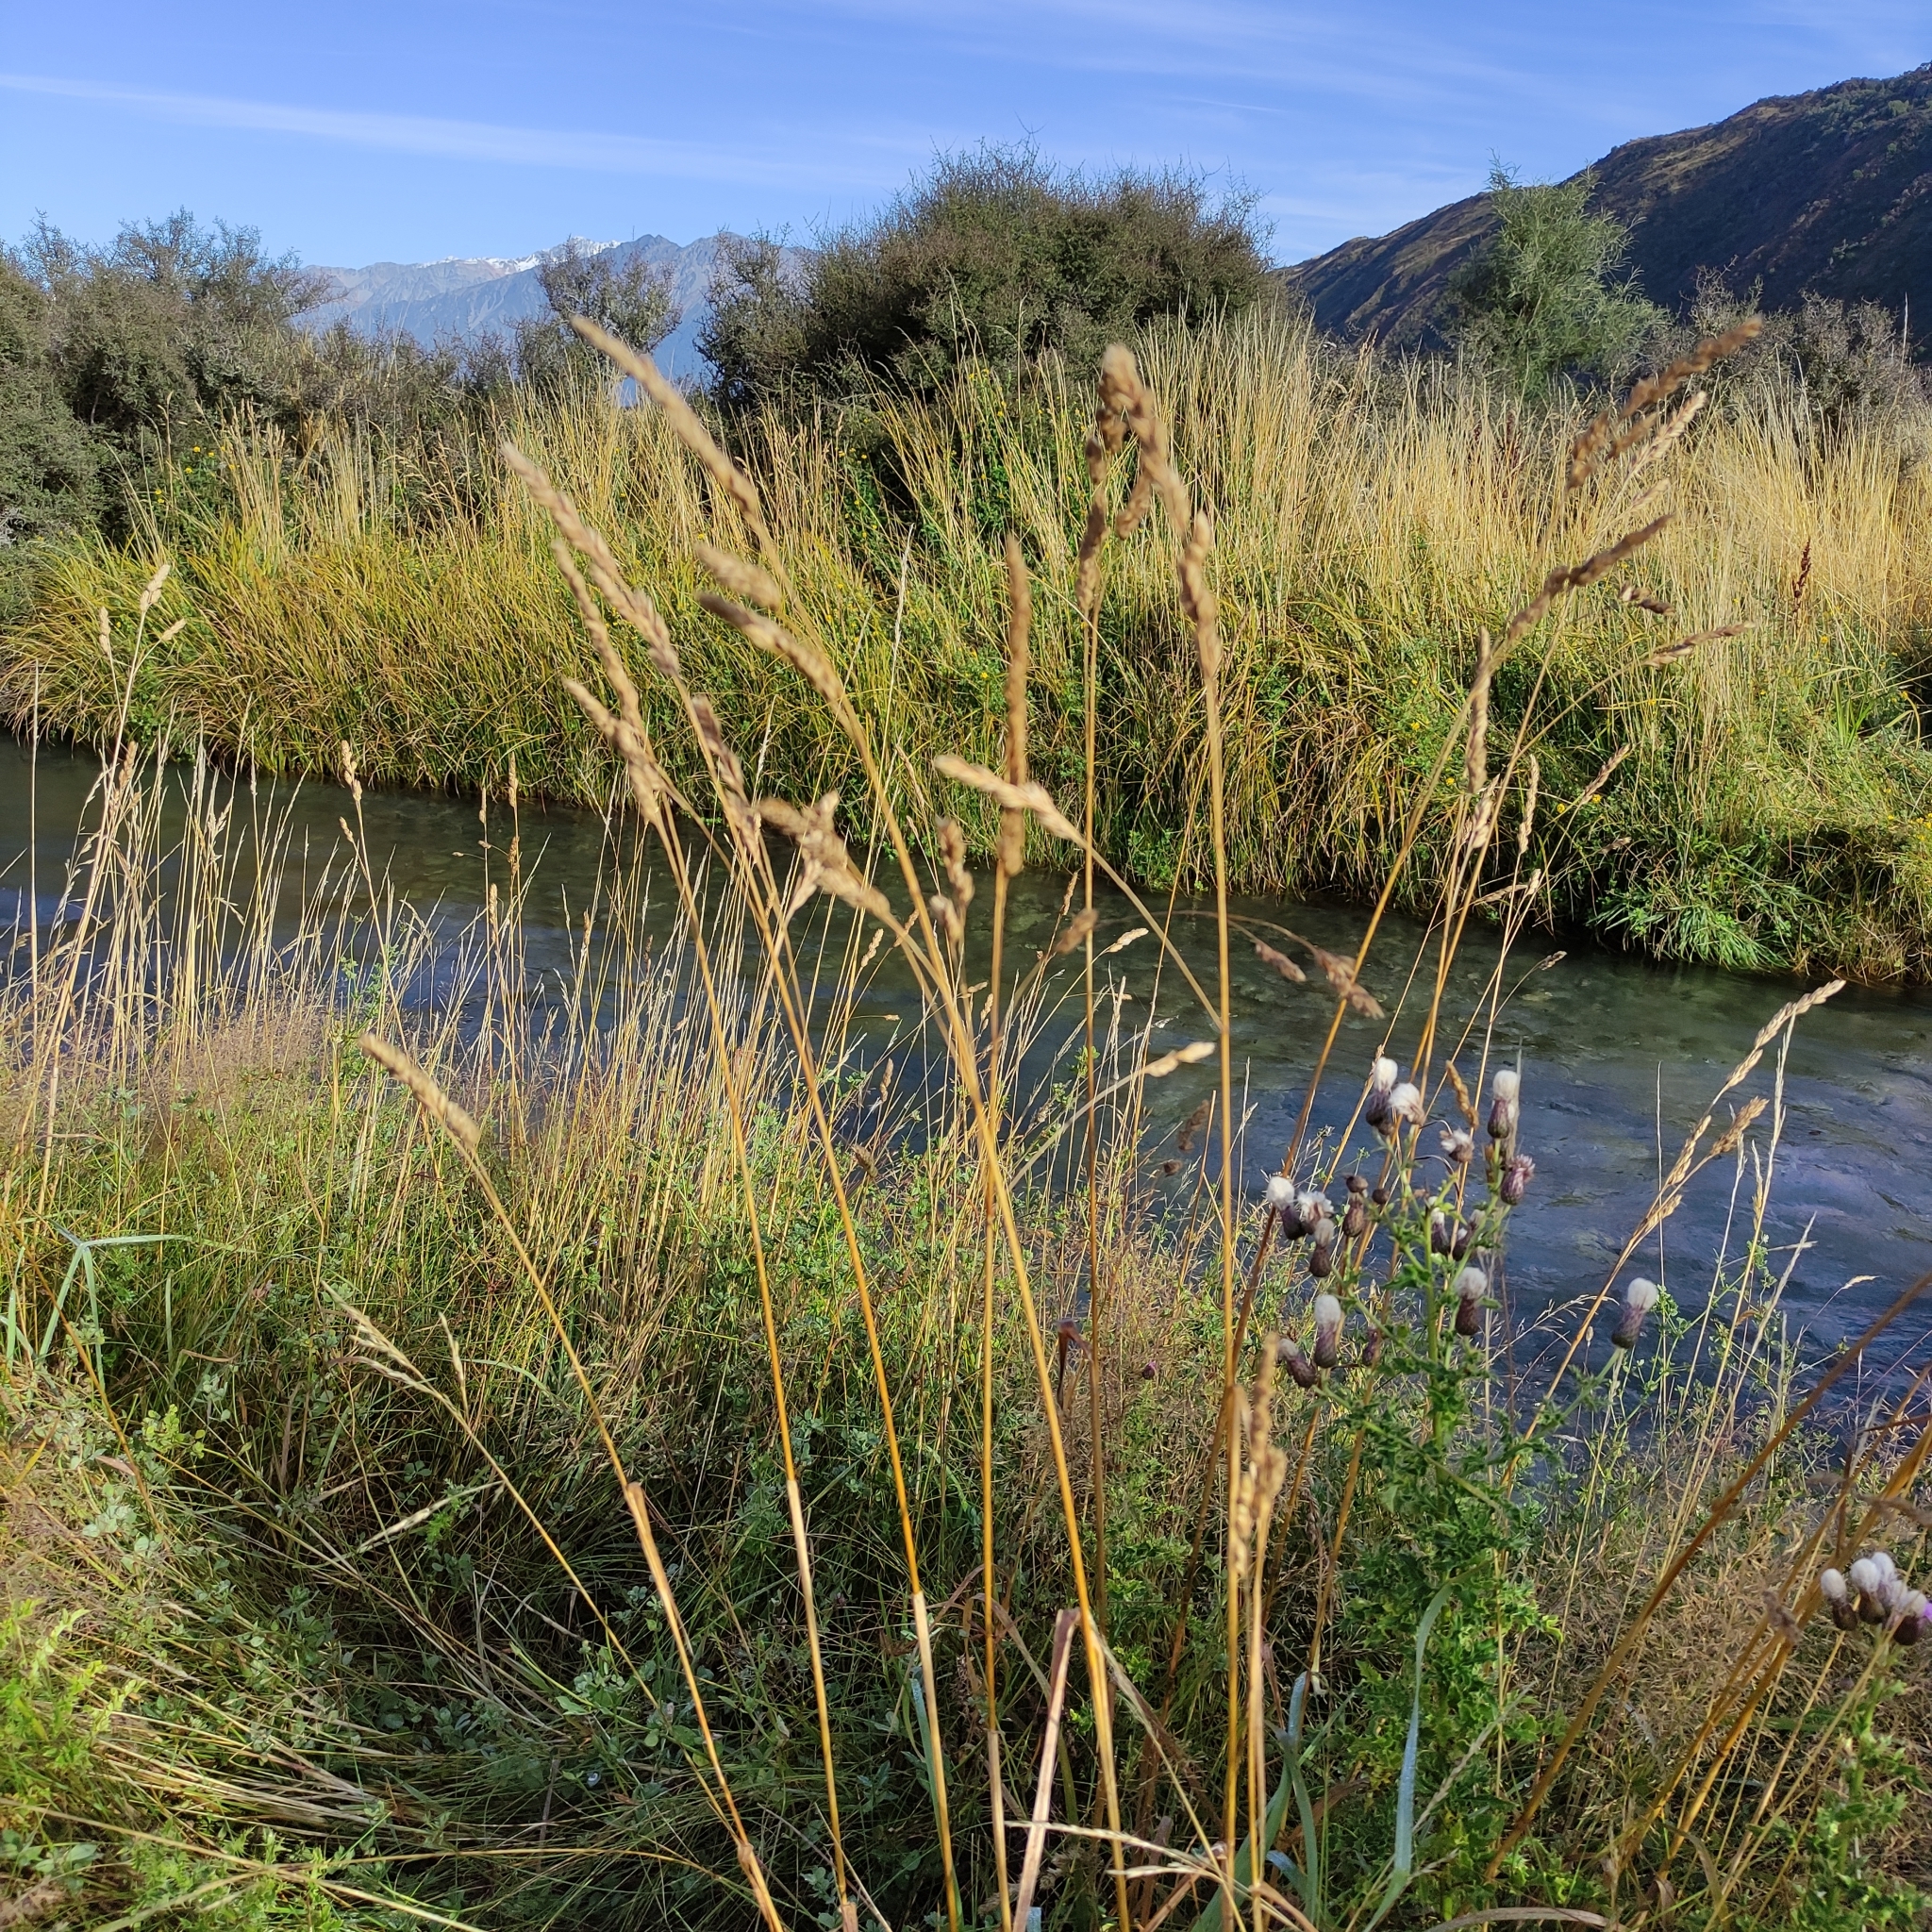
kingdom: Plantae
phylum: Tracheophyta
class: Liliopsida
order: Poales
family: Poaceae
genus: Dactylis
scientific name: Dactylis glomerata
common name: Orchardgrass
